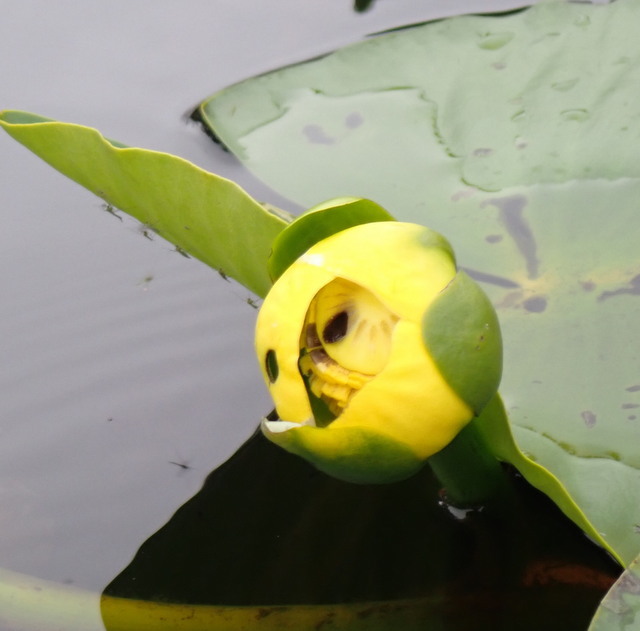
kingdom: Plantae
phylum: Tracheophyta
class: Magnoliopsida
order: Nymphaeales
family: Nymphaeaceae
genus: Nuphar
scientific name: Nuphar advena
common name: Spatter-dock
